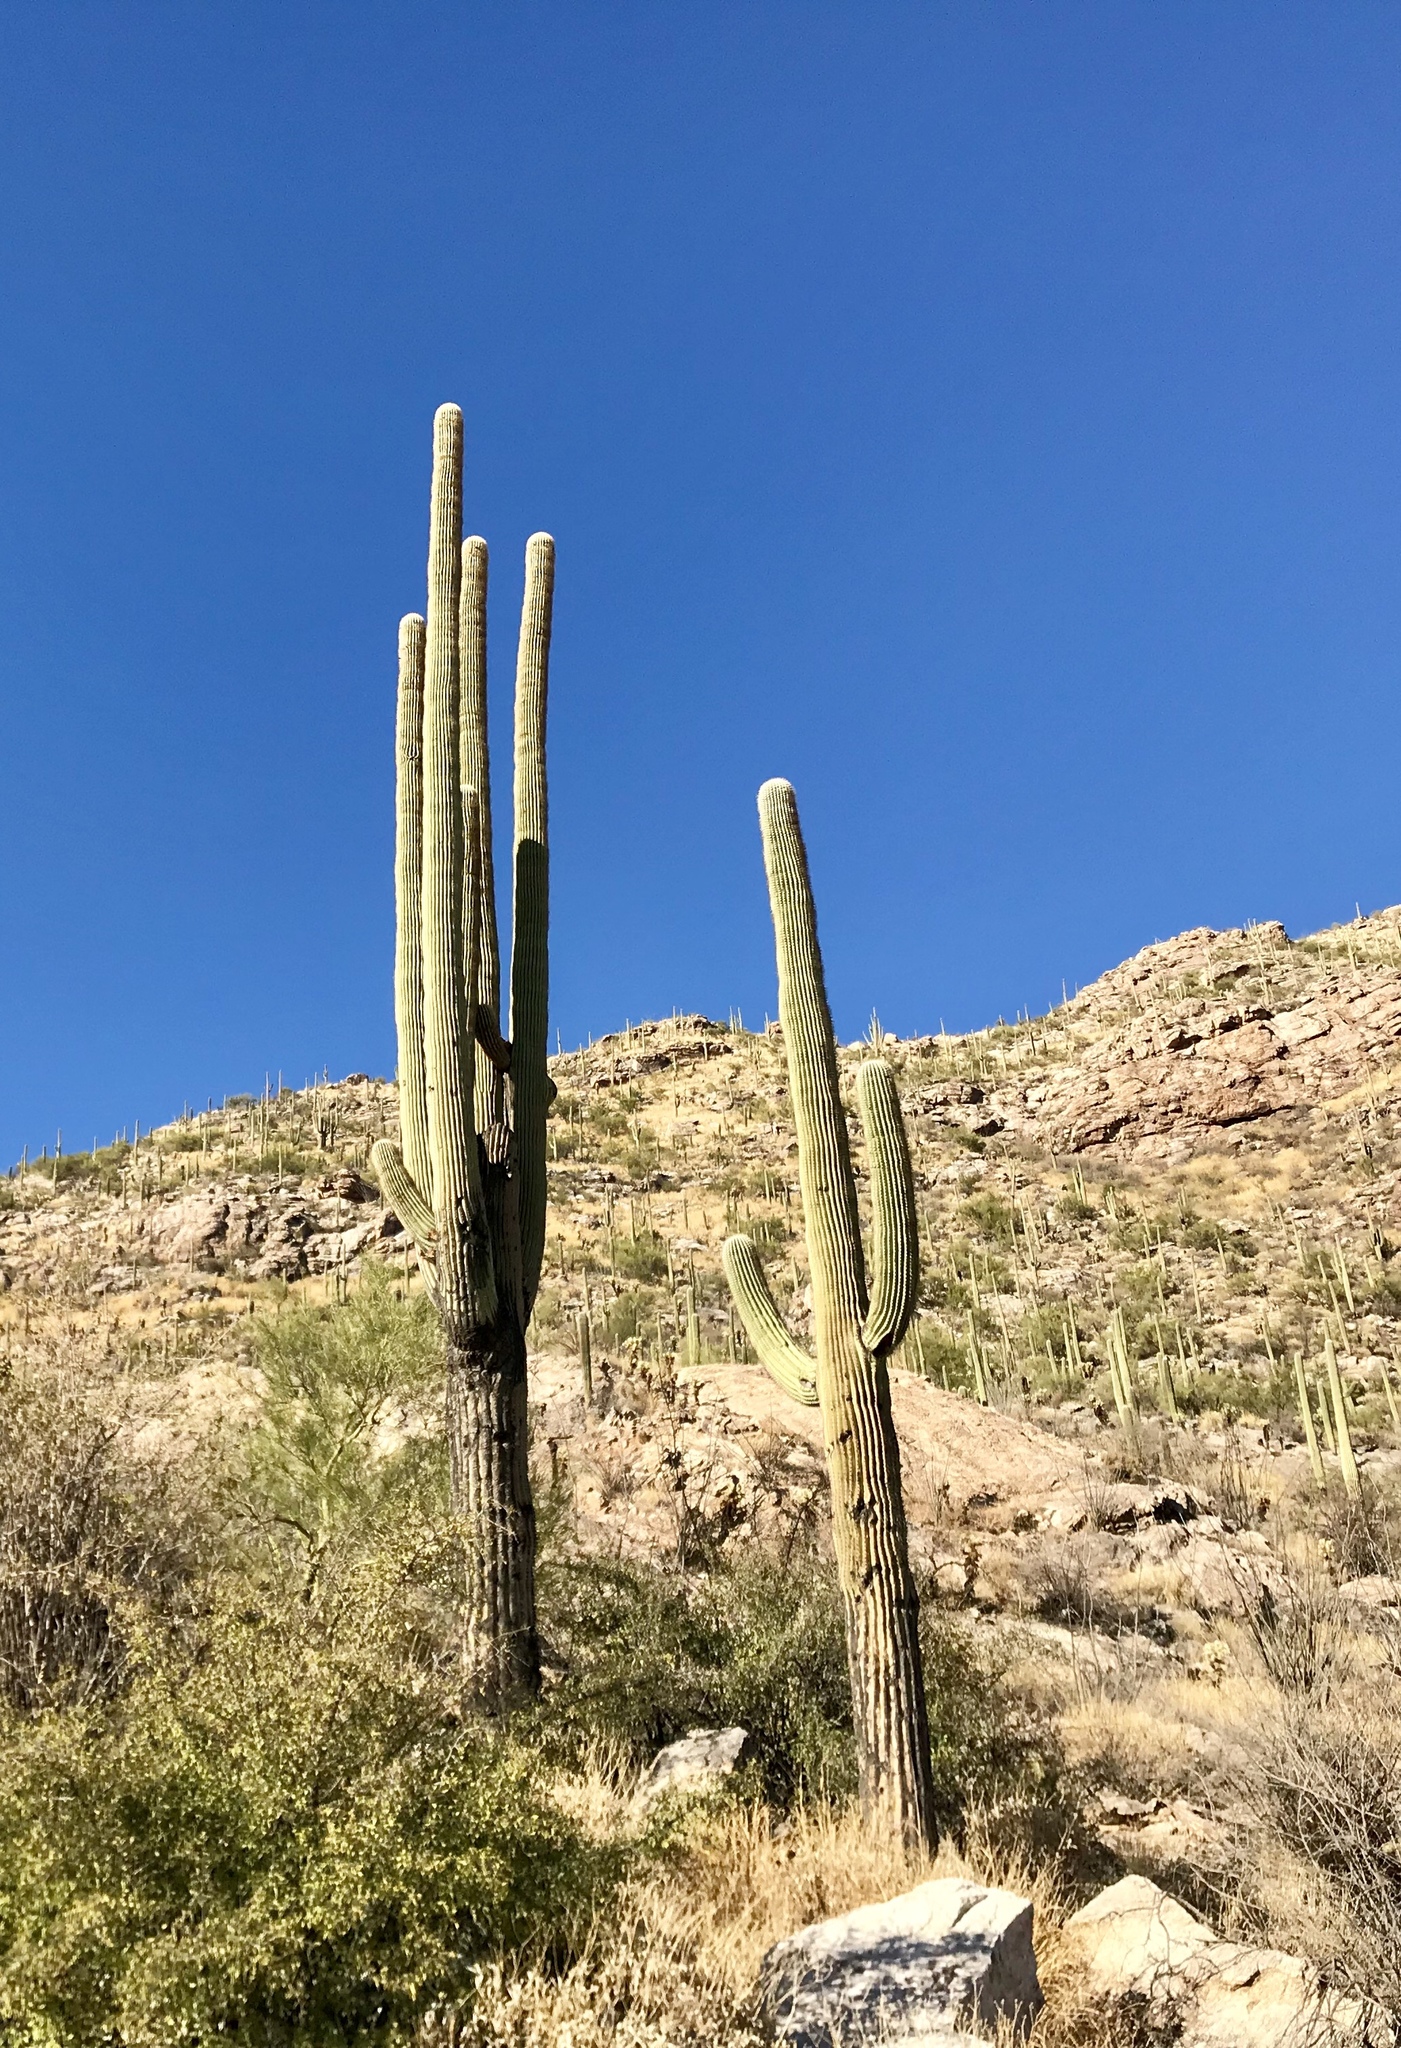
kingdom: Plantae
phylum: Tracheophyta
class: Magnoliopsida
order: Caryophyllales
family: Cactaceae
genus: Carnegiea
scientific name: Carnegiea gigantea
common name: Saguaro
